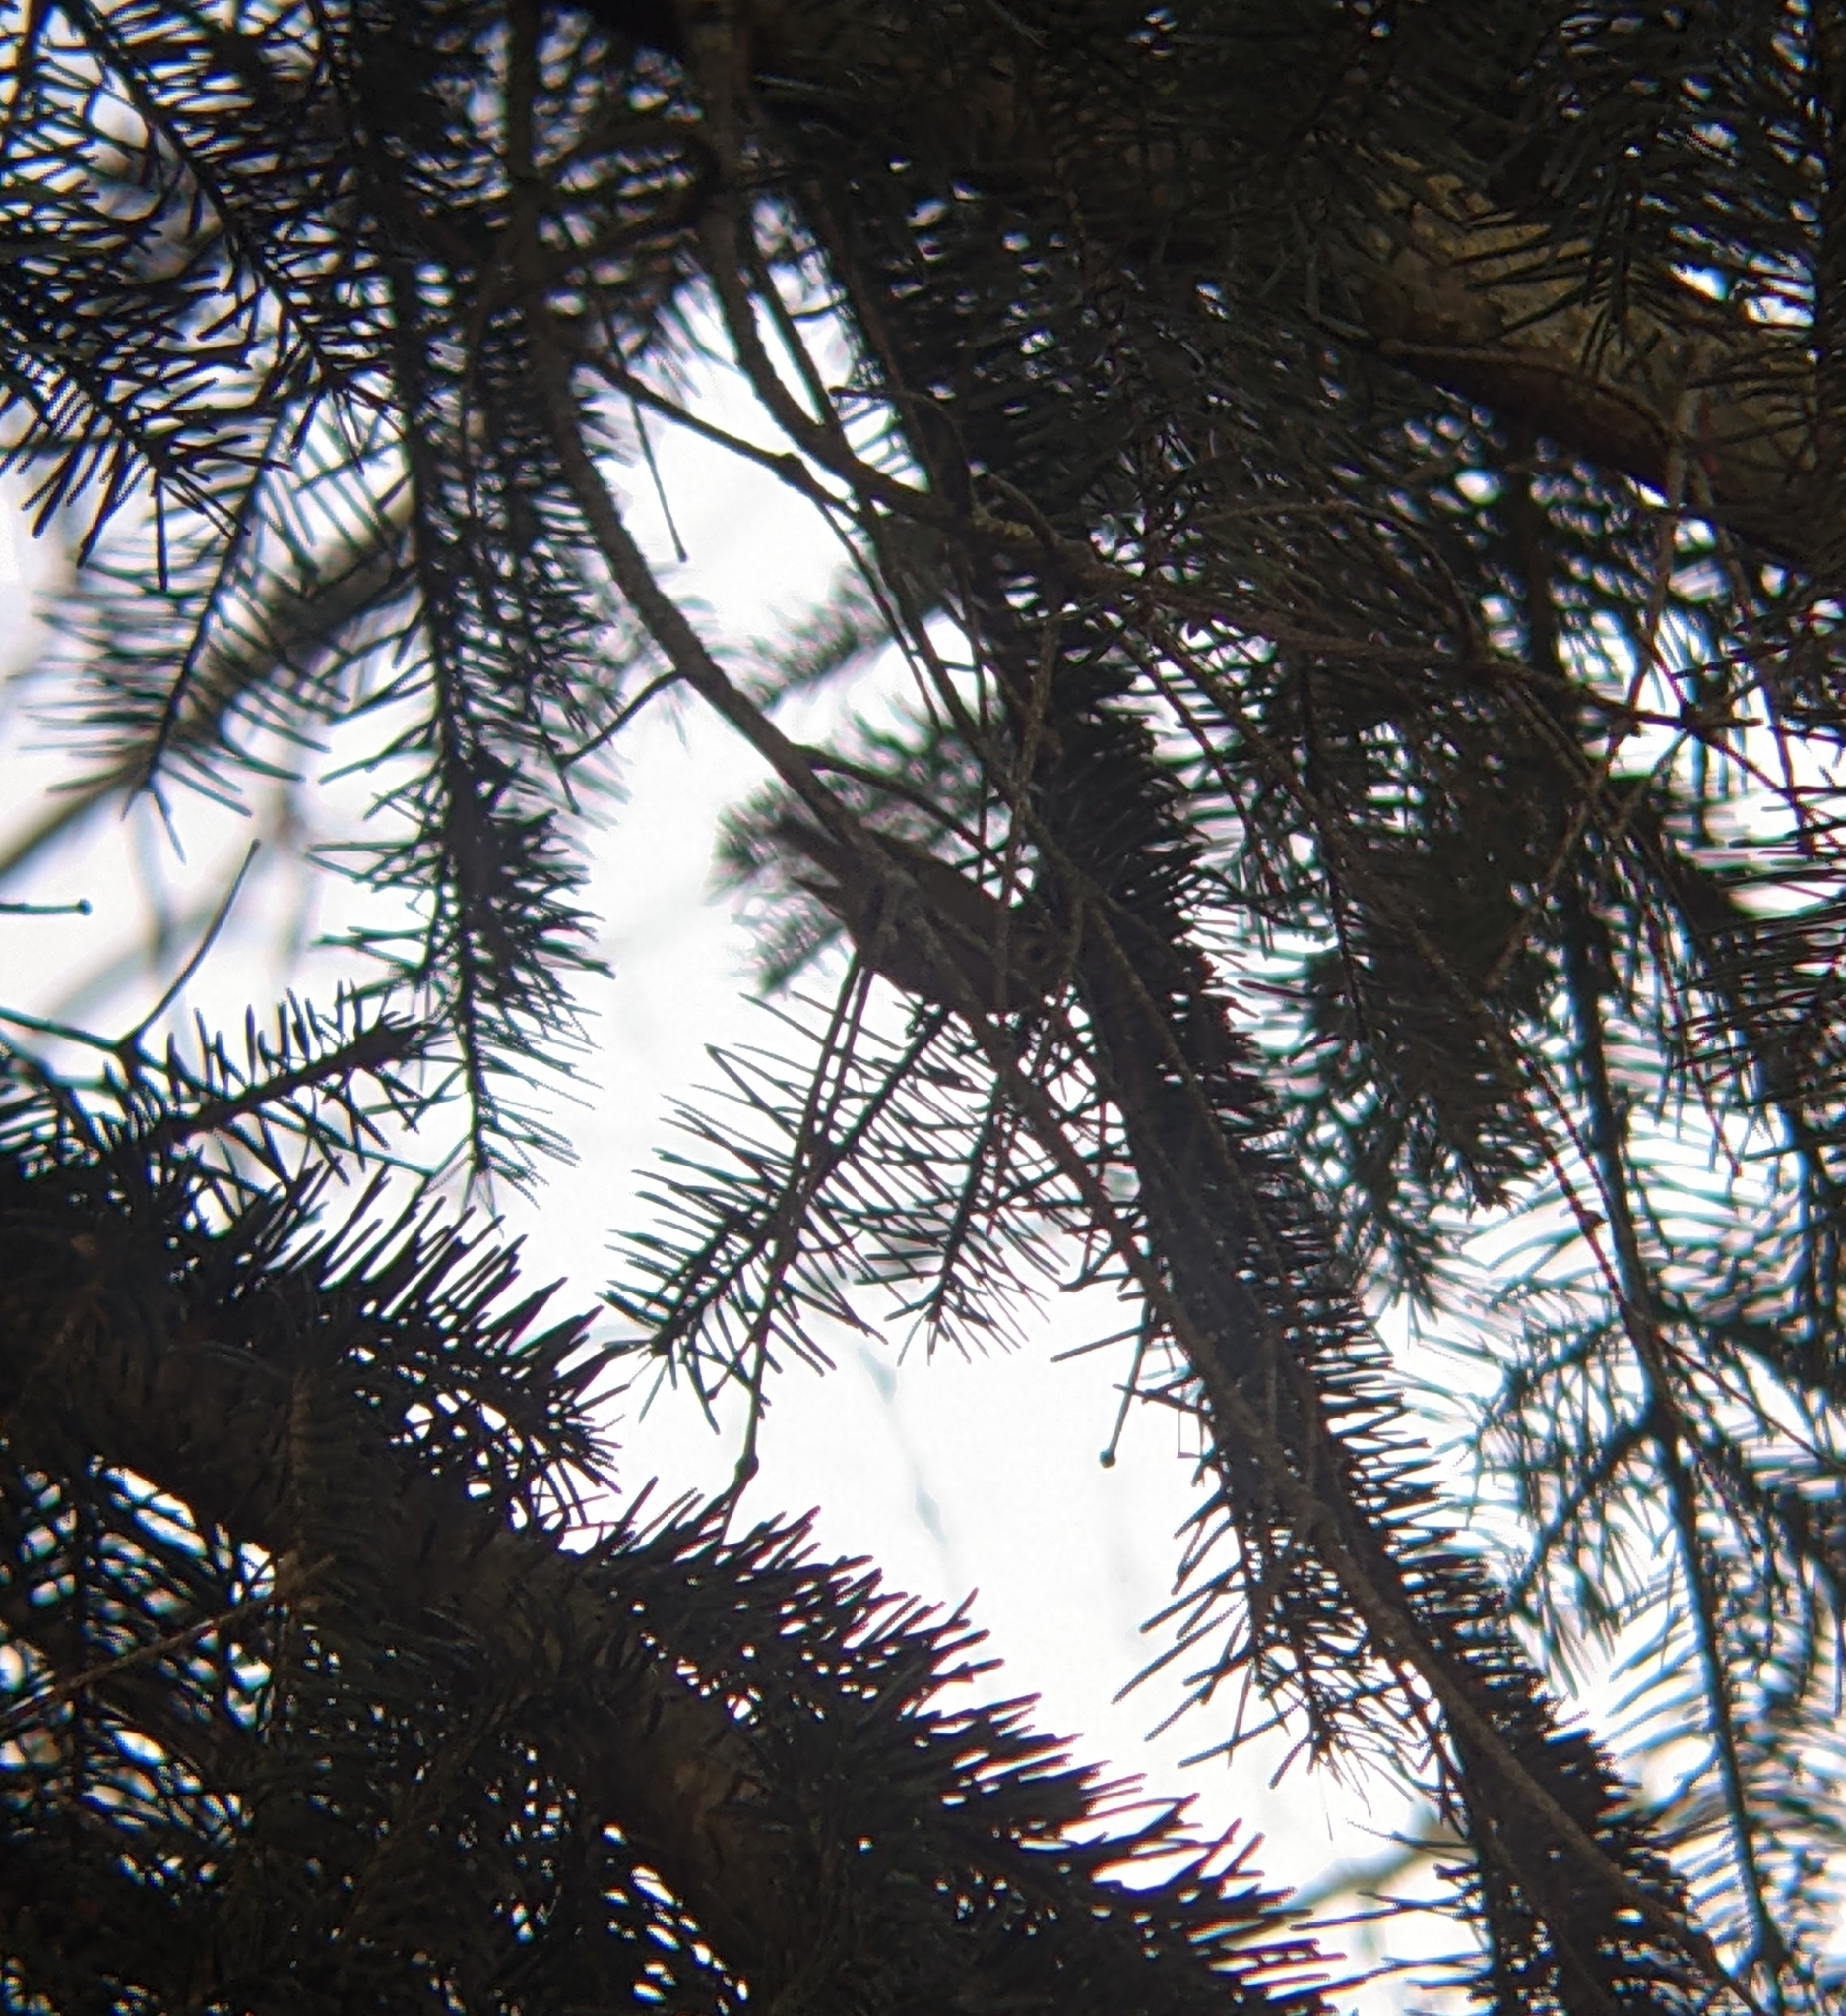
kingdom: Animalia
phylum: Chordata
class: Aves
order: Passeriformes
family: Regulidae
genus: Regulus
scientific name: Regulus regulus
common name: Goldcrest
